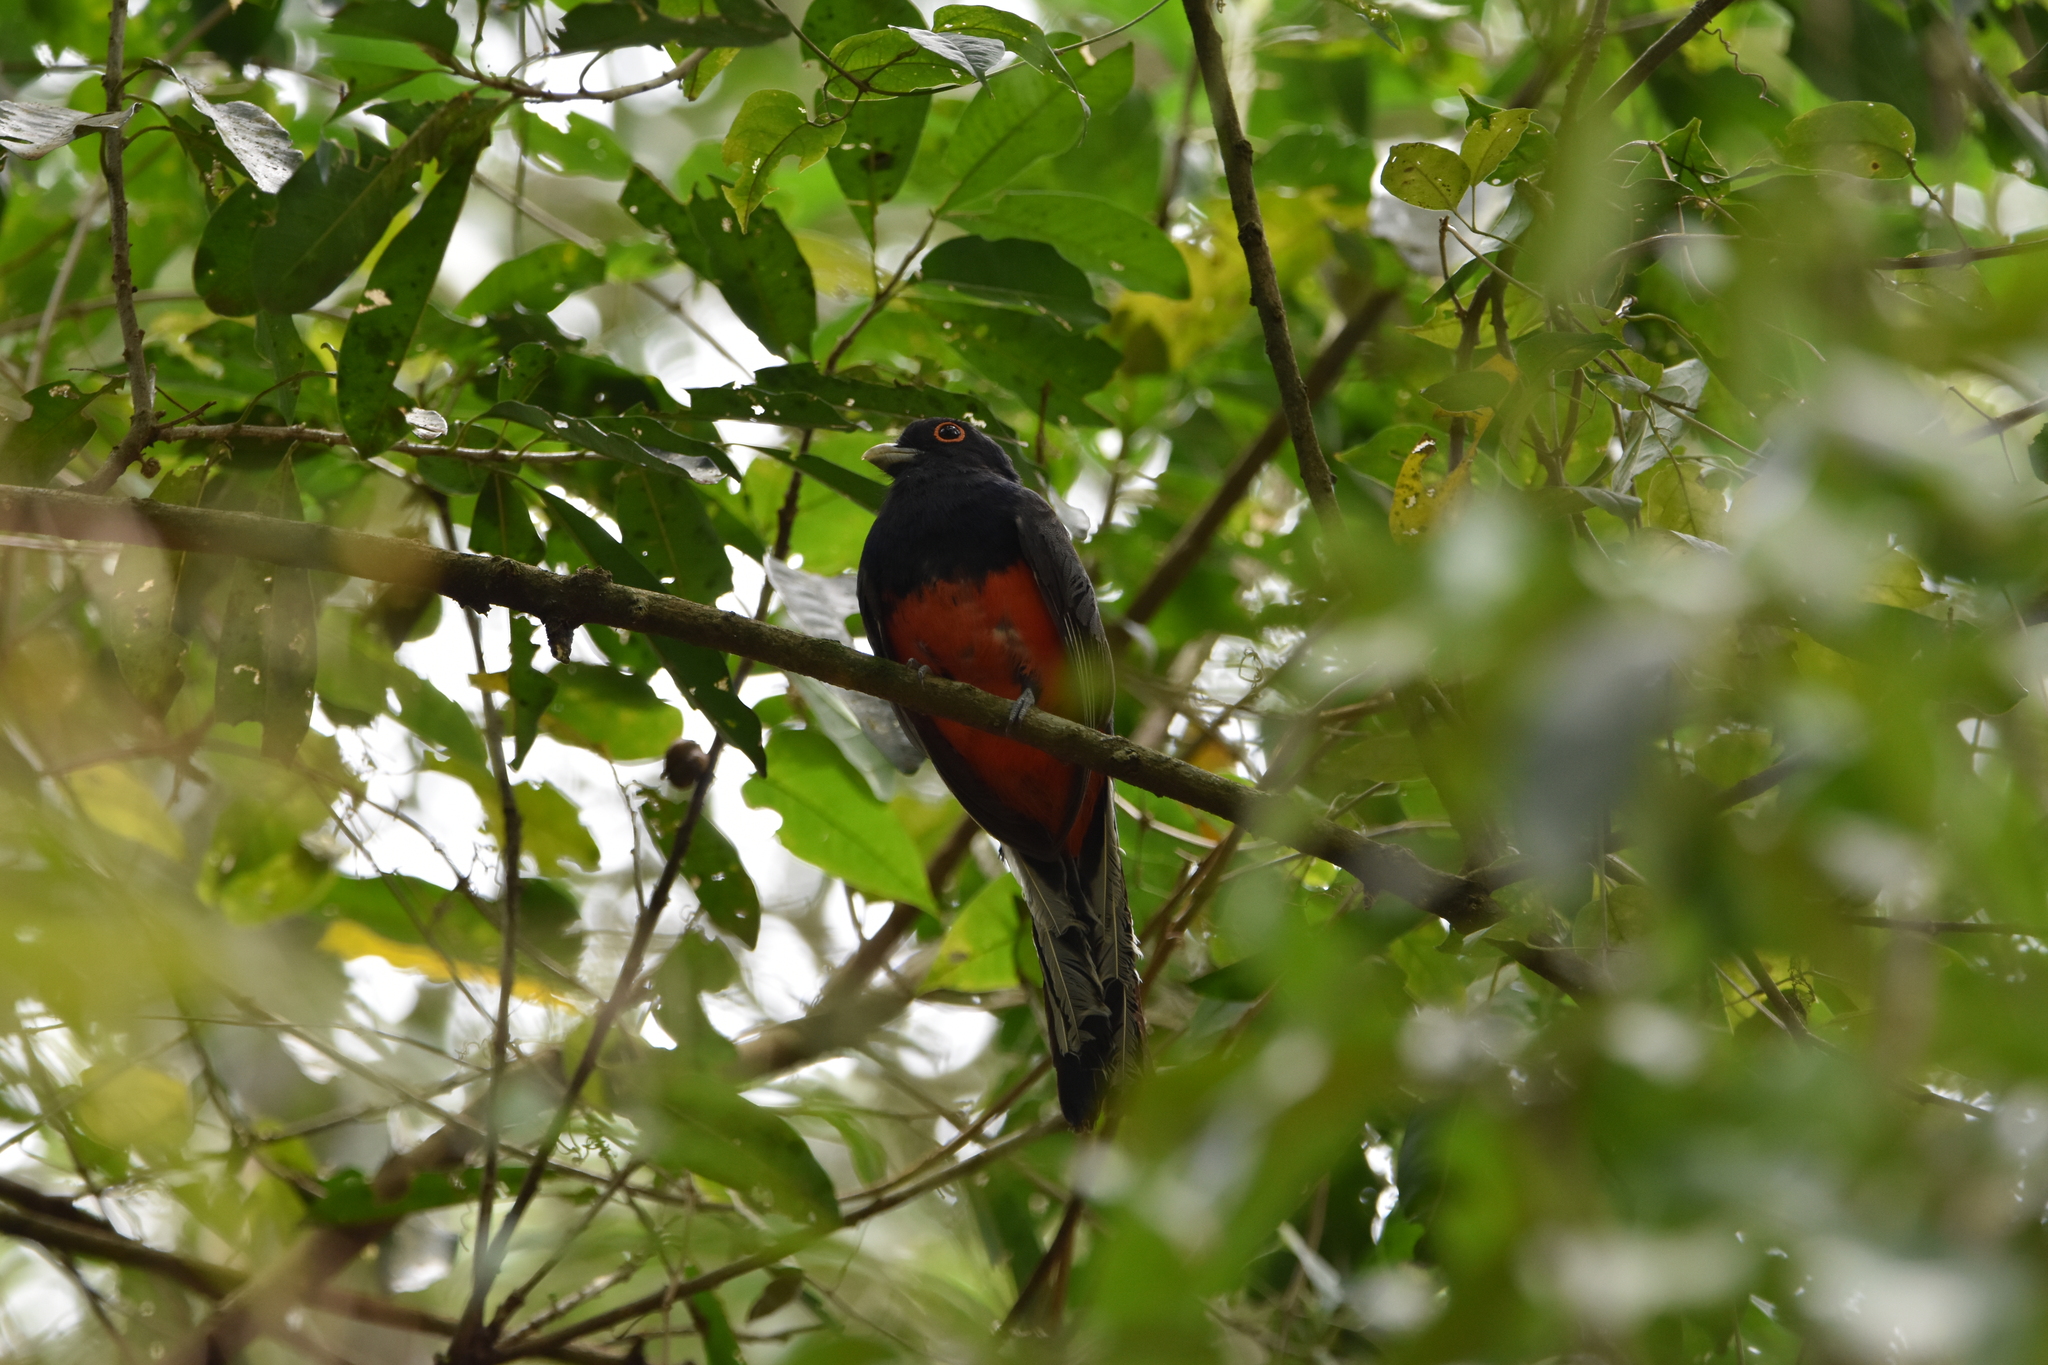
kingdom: Animalia
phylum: Chordata
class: Aves
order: Trogoniformes
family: Trogonidae
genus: Trogon
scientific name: Trogon surrucura
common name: Surucua trogon
